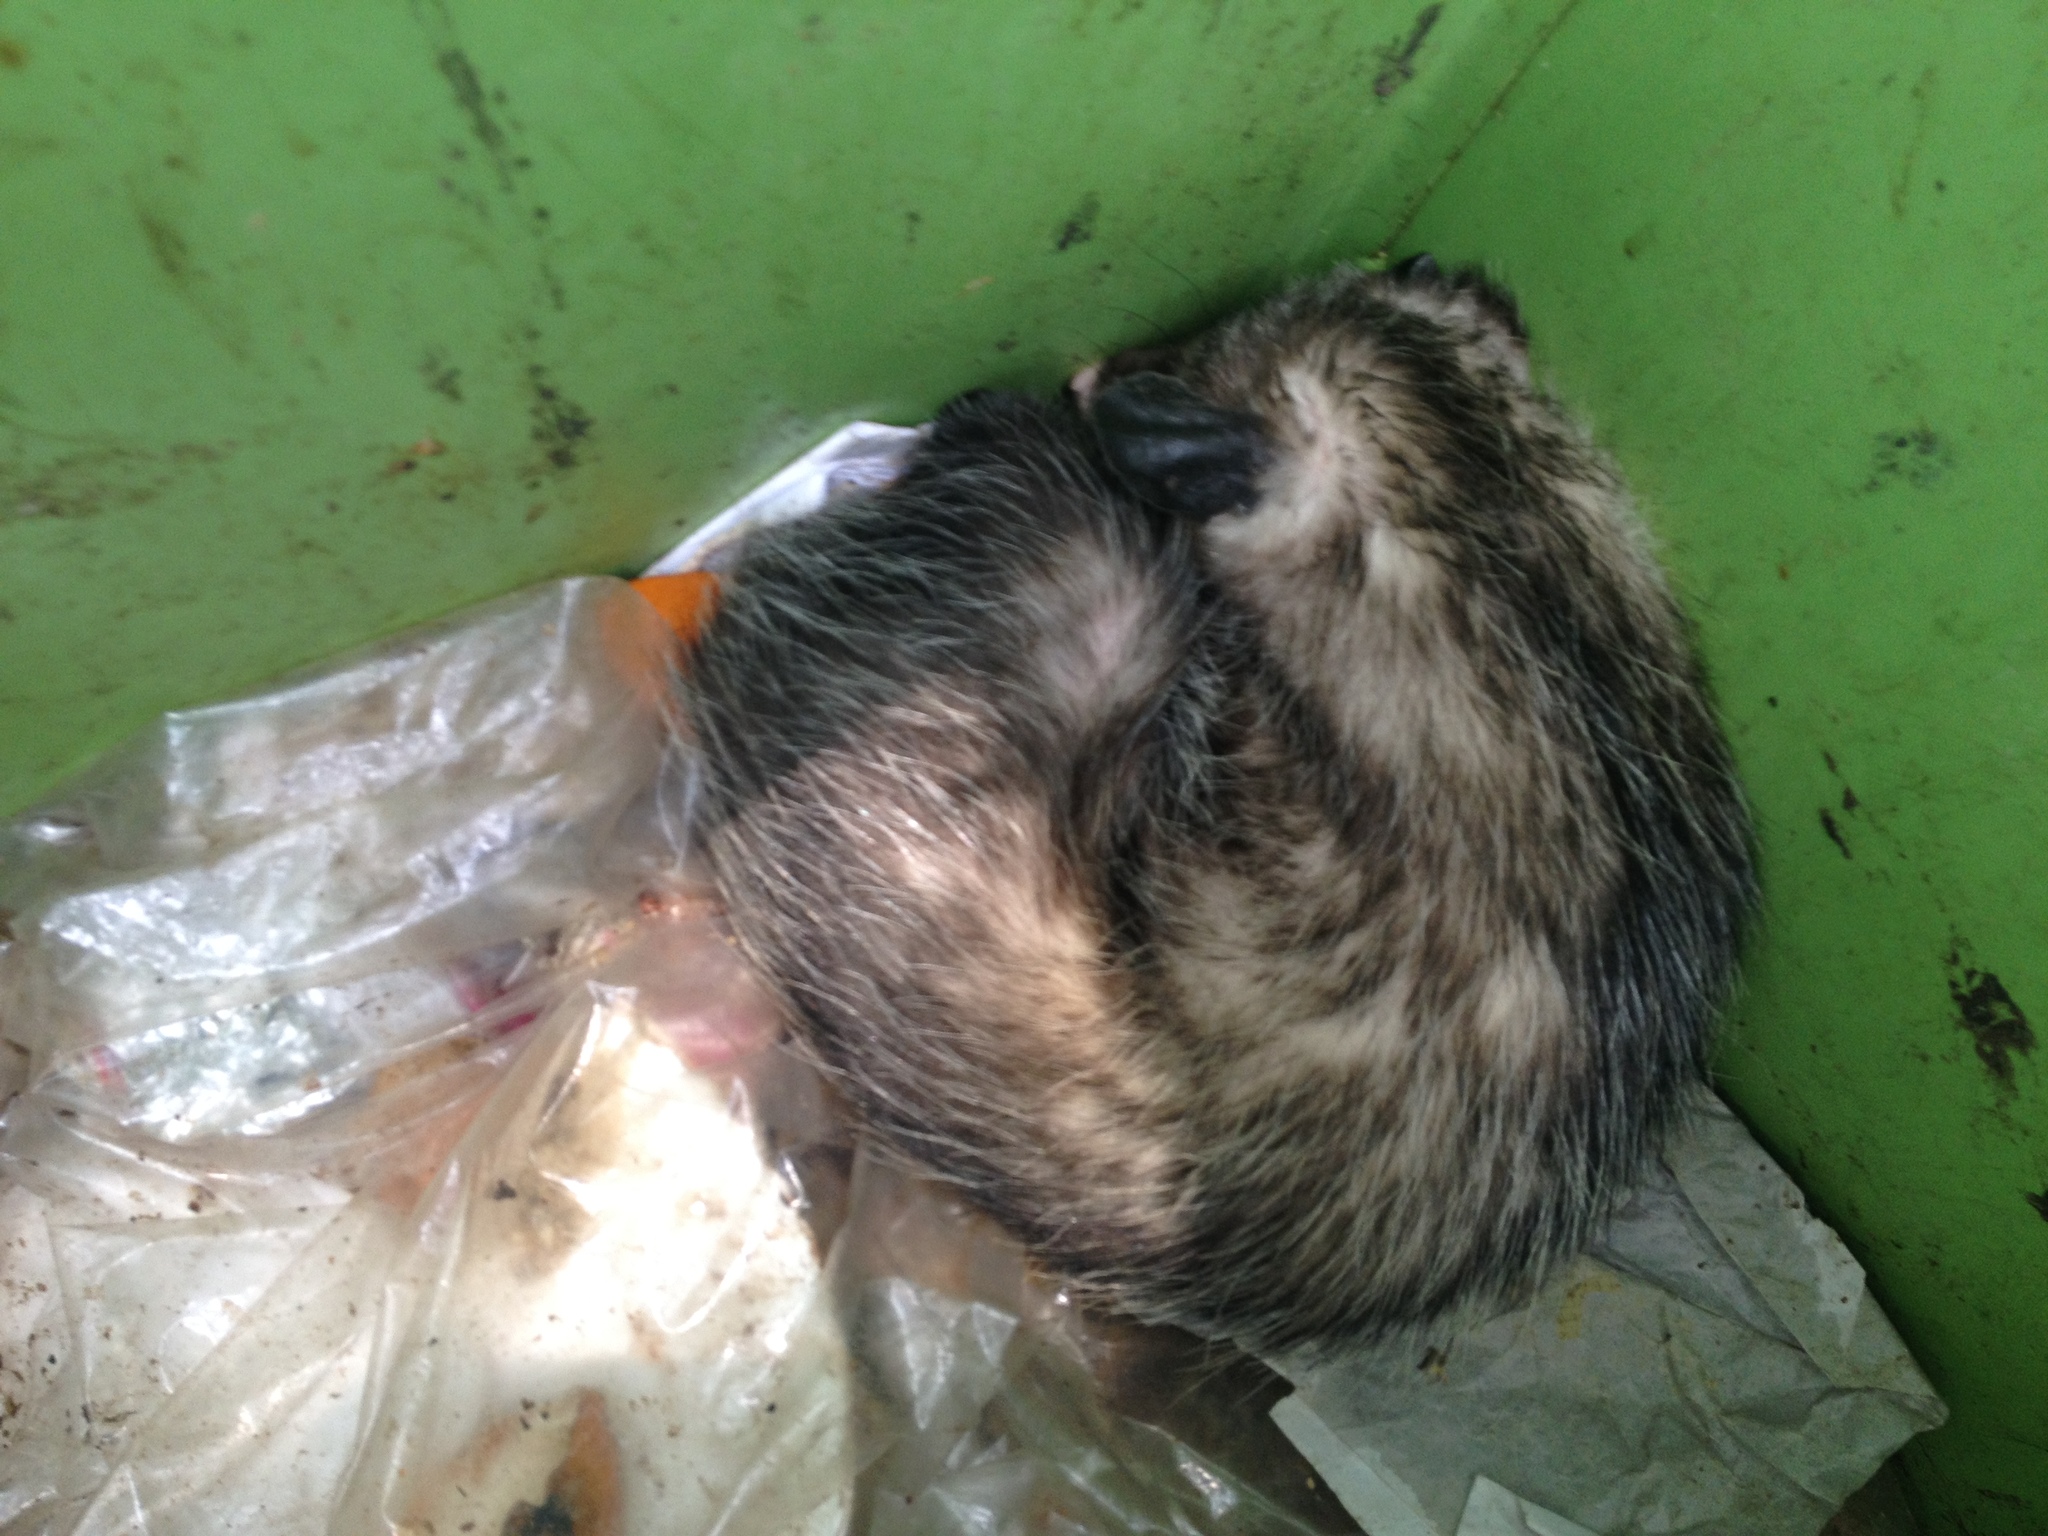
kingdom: Animalia
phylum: Chordata
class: Mammalia
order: Didelphimorphia
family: Didelphidae
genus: Didelphis
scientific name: Didelphis virginiana
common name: Virginia opossum
